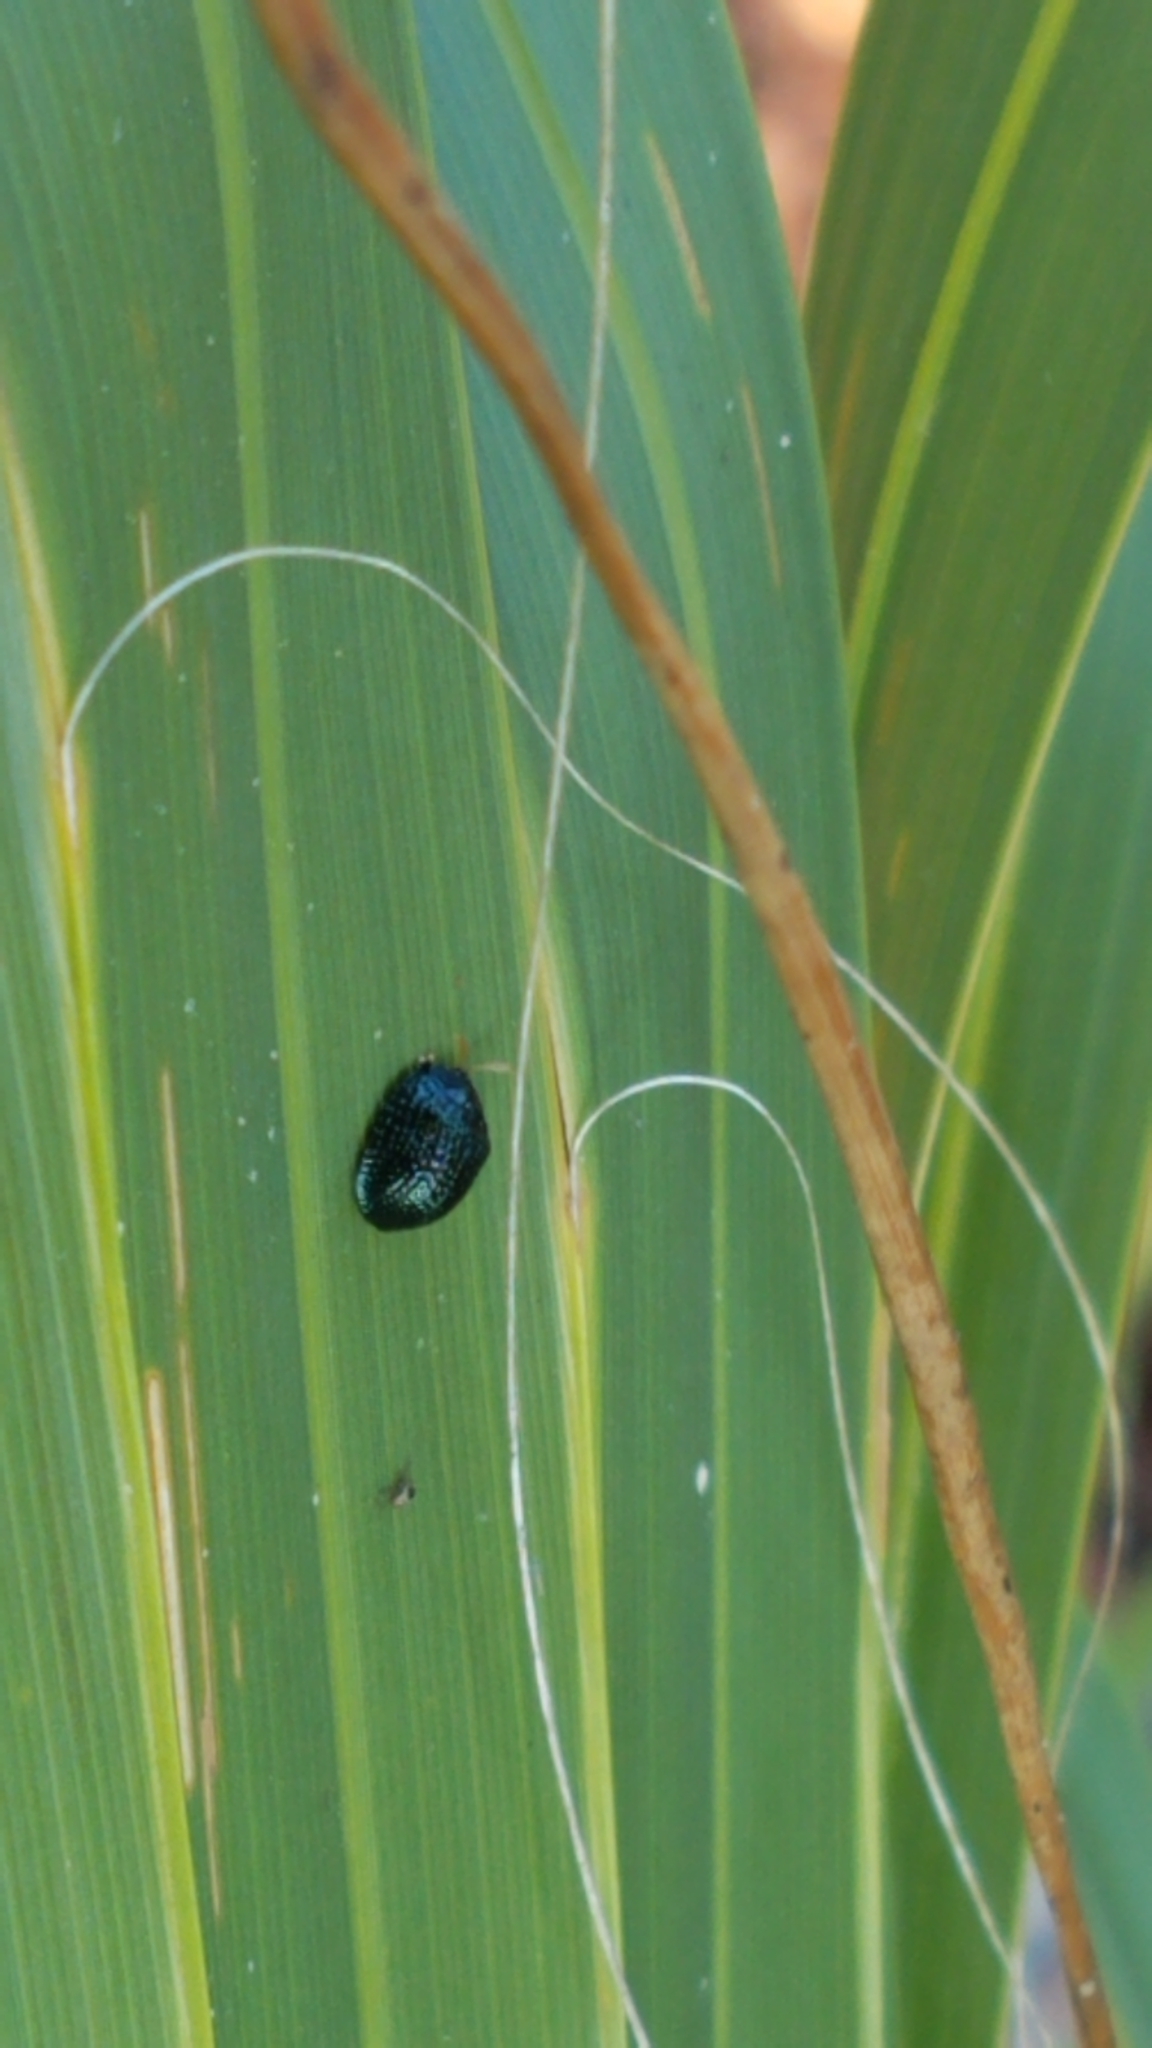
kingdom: Animalia
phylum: Arthropoda
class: Insecta
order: Coleoptera
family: Chrysomelidae
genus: Hemisphaerota
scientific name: Hemisphaerota cyanea
